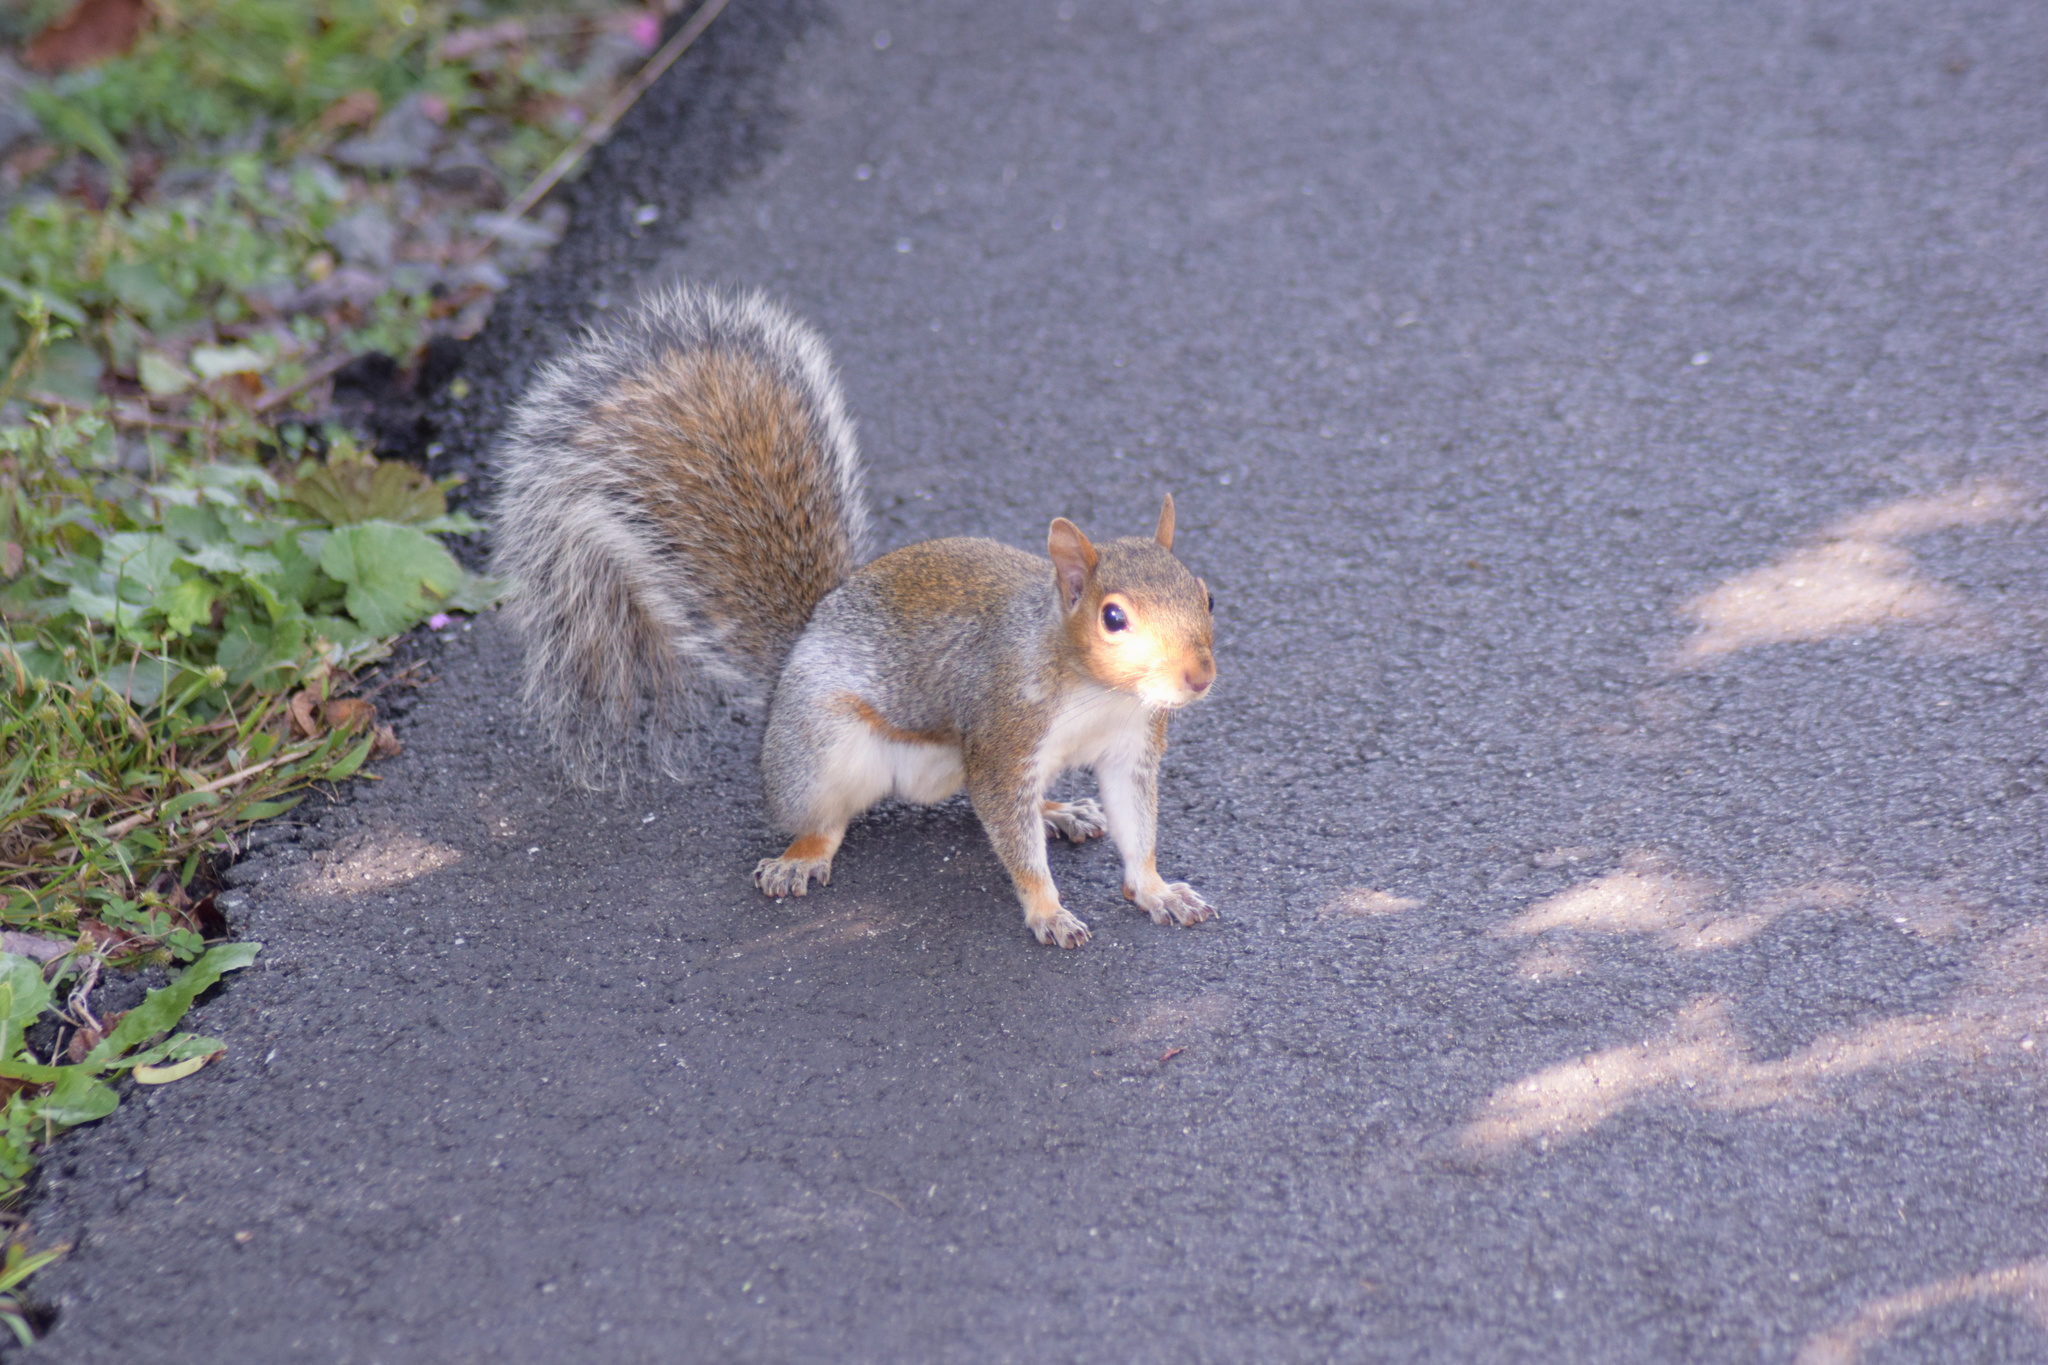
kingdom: Animalia
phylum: Chordata
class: Mammalia
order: Rodentia
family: Sciuridae
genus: Sciurus
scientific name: Sciurus carolinensis
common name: Eastern gray squirrel
